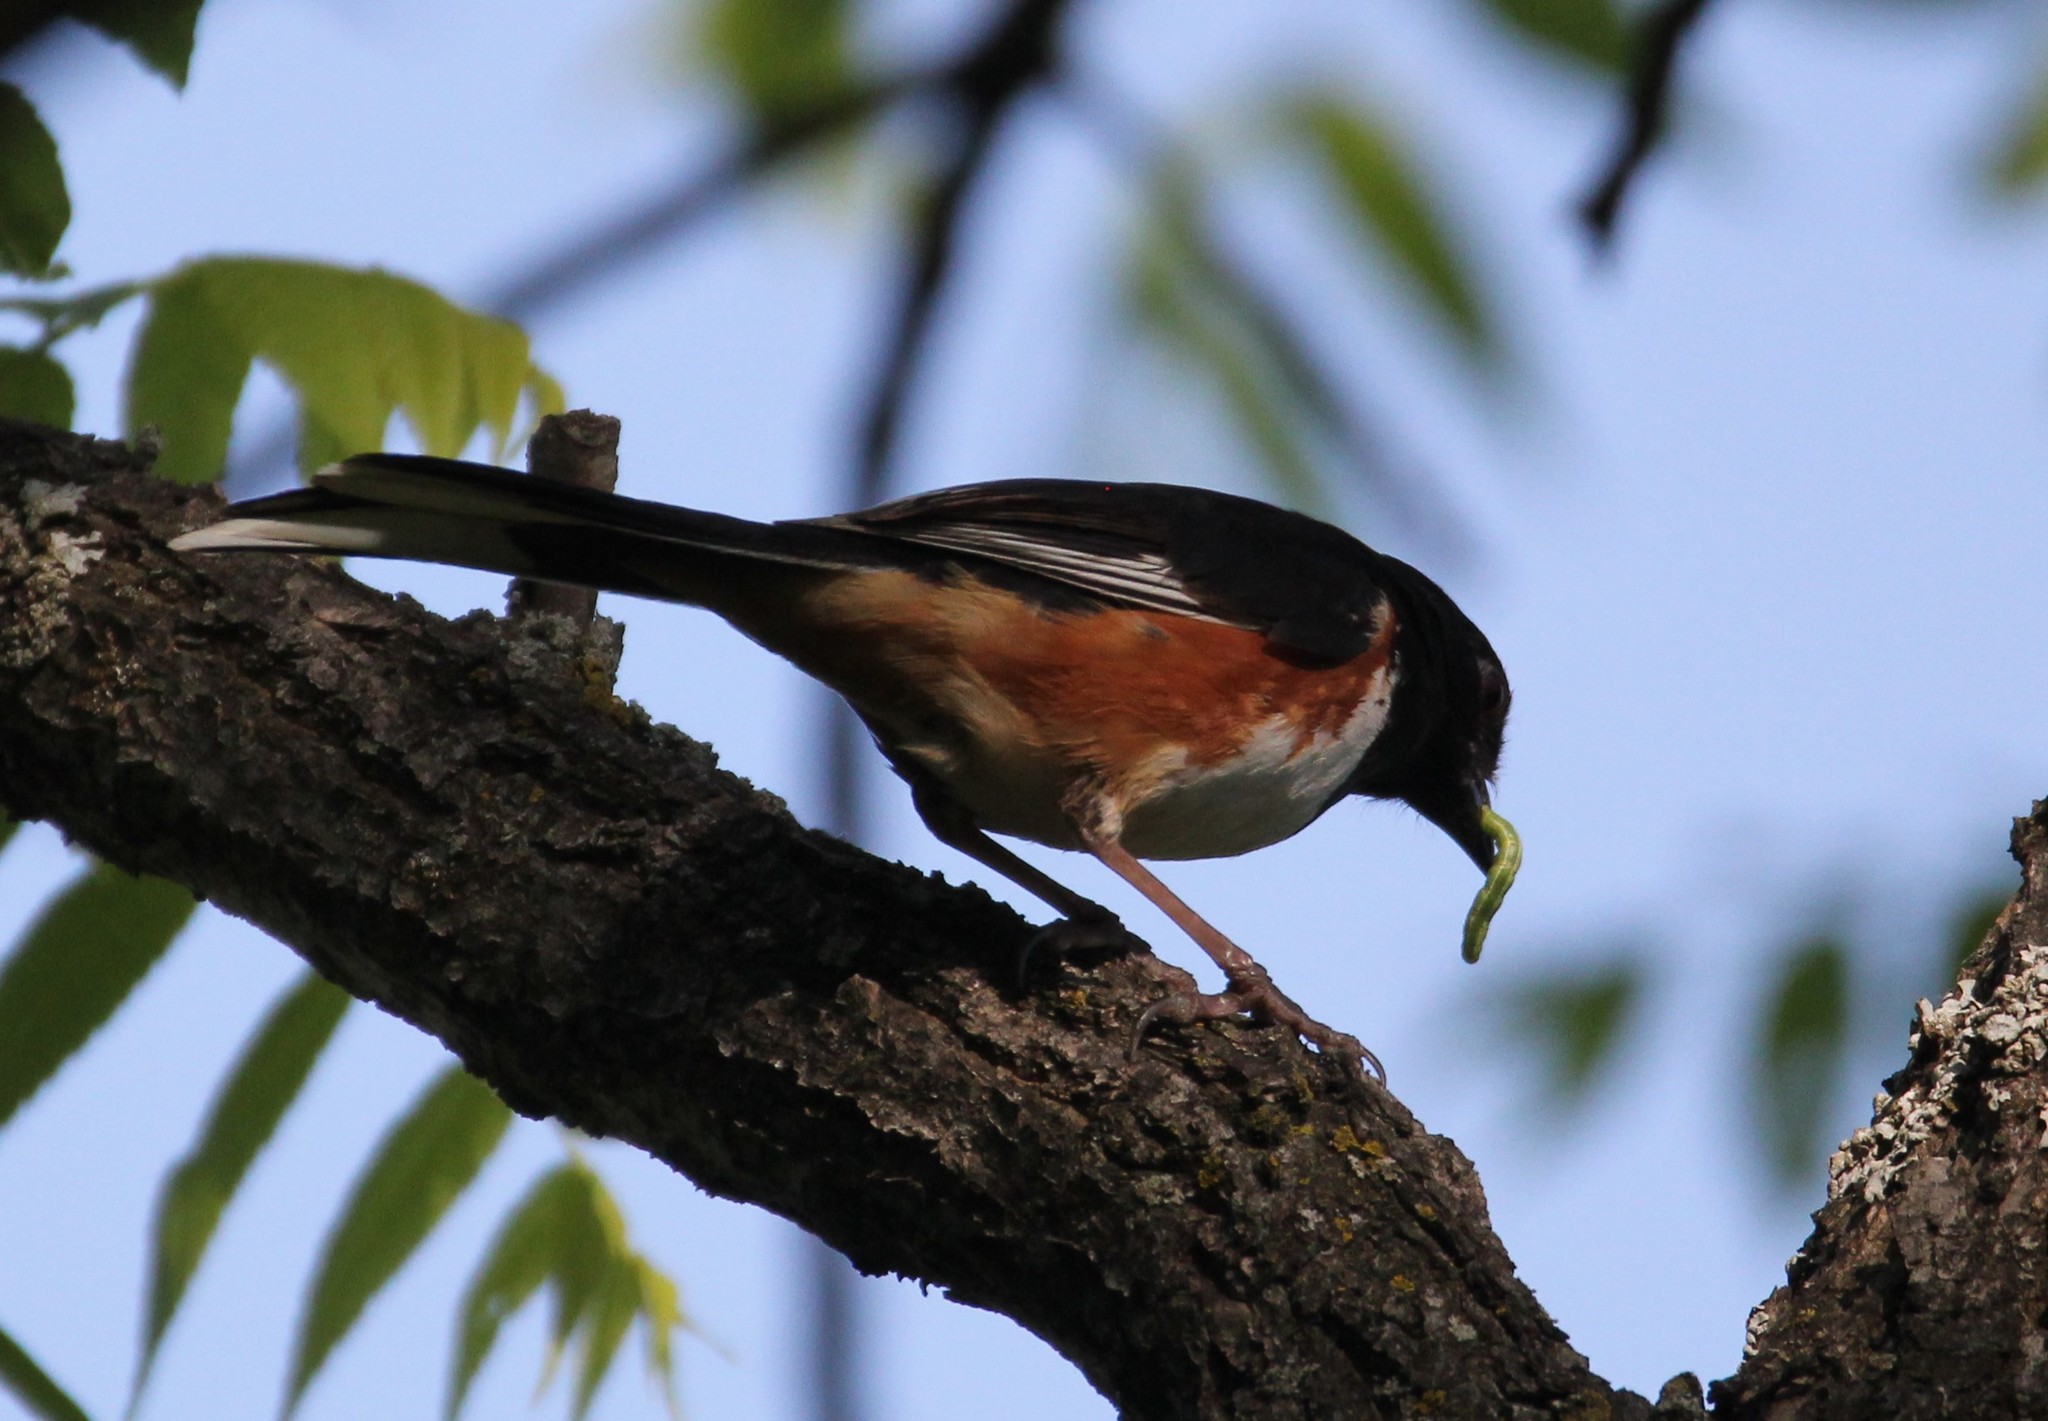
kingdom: Animalia
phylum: Chordata
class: Aves
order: Passeriformes
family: Passerellidae
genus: Pipilo
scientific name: Pipilo erythrophthalmus
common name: Eastern towhee
